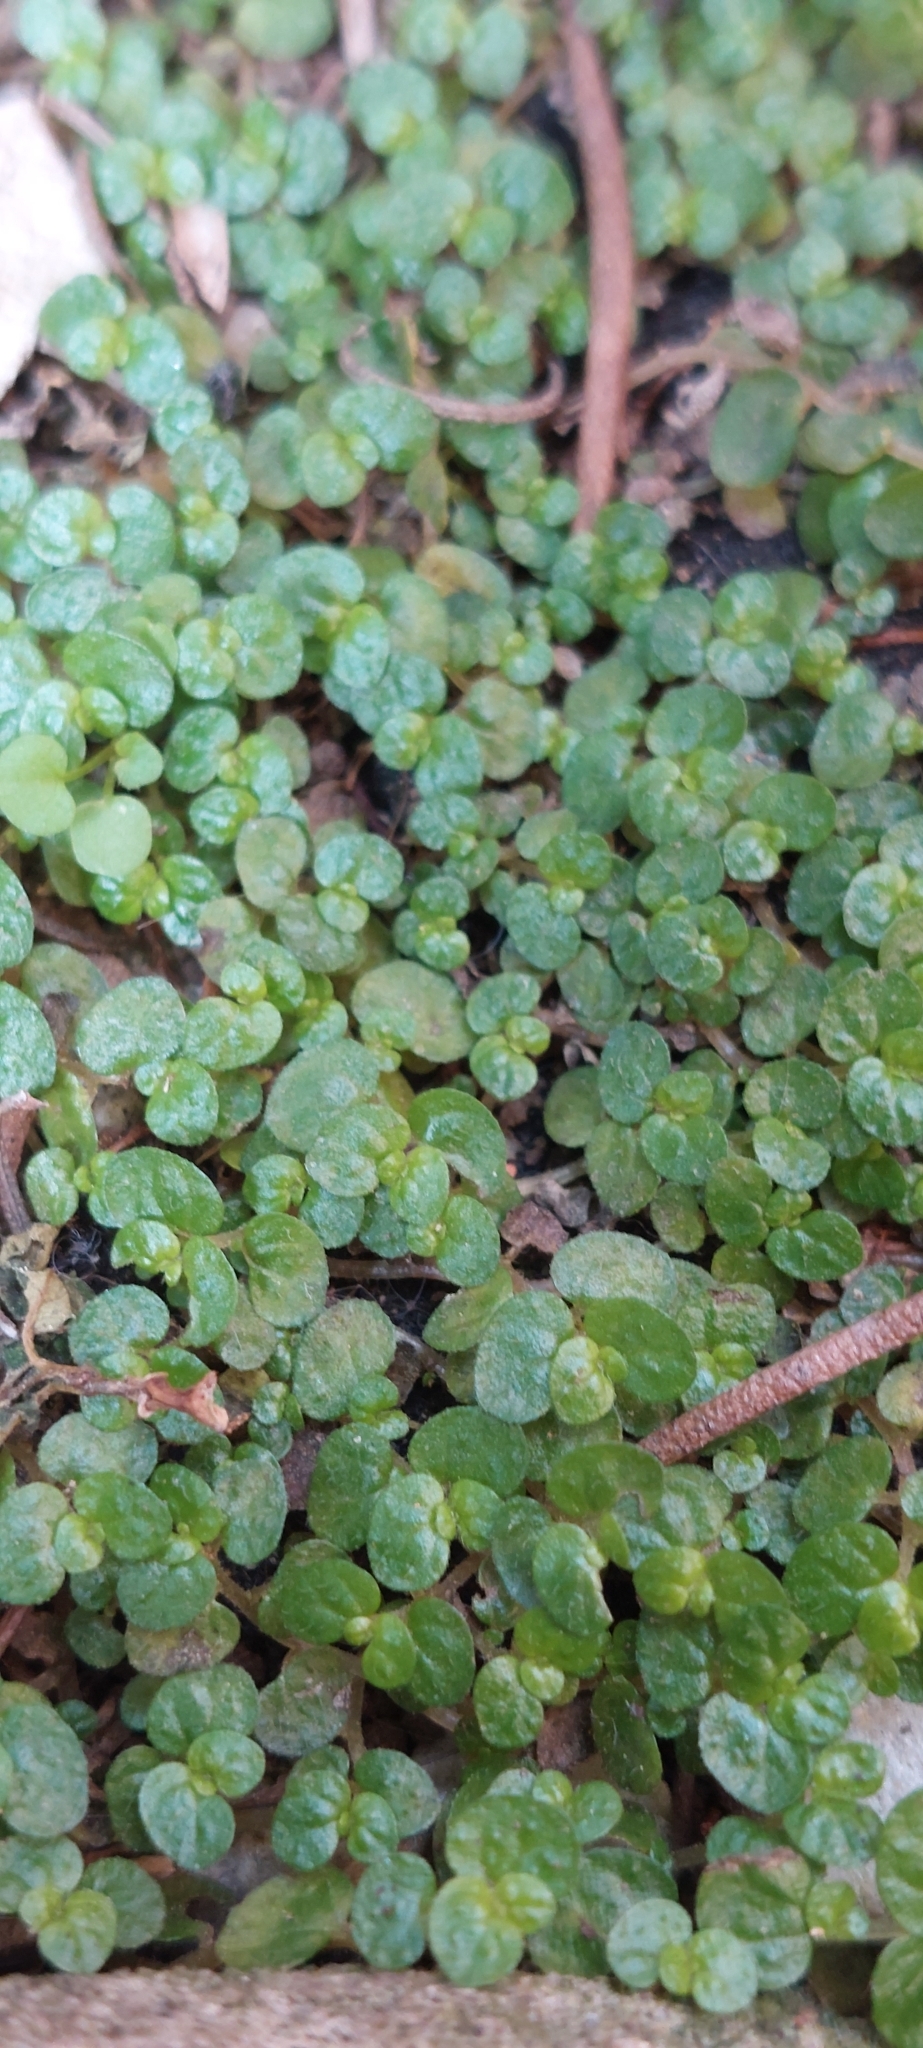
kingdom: Plantae
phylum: Tracheophyta
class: Magnoliopsida
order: Rosales
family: Urticaceae
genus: Soleirolia
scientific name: Soleirolia soleirolii
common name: Mind-your-own-business
